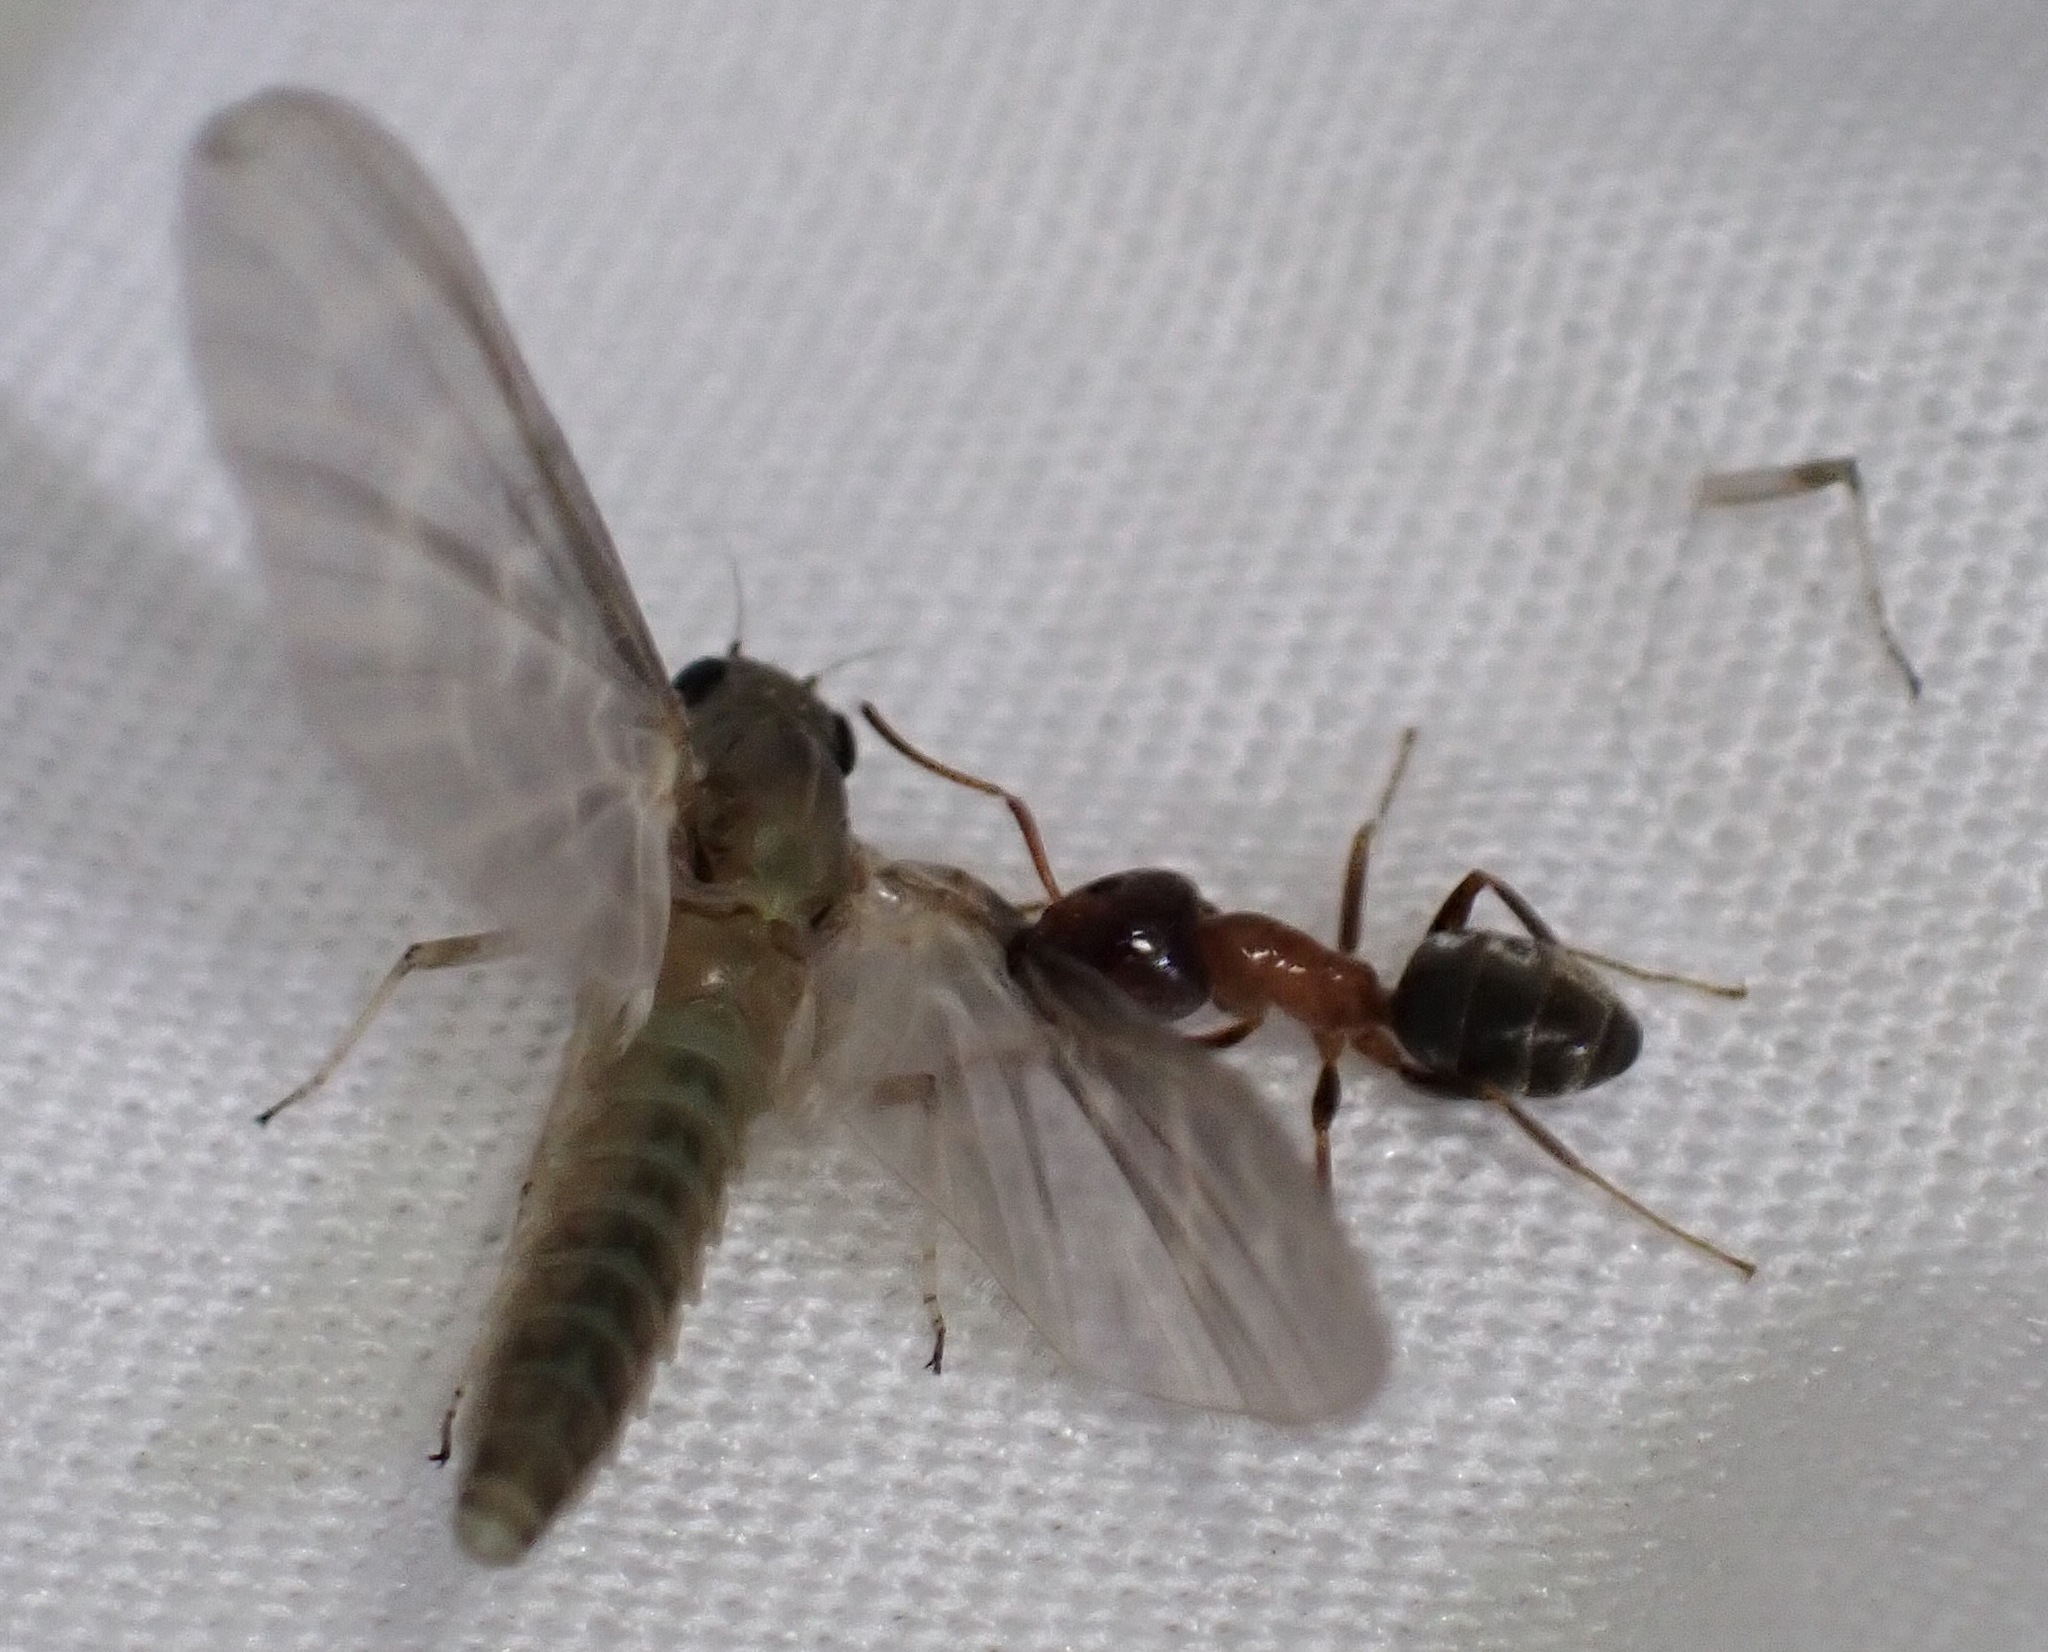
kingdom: Animalia
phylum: Arthropoda
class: Insecta
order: Hymenoptera
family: Formicidae
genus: Liometopum
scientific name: Liometopum occidentale
